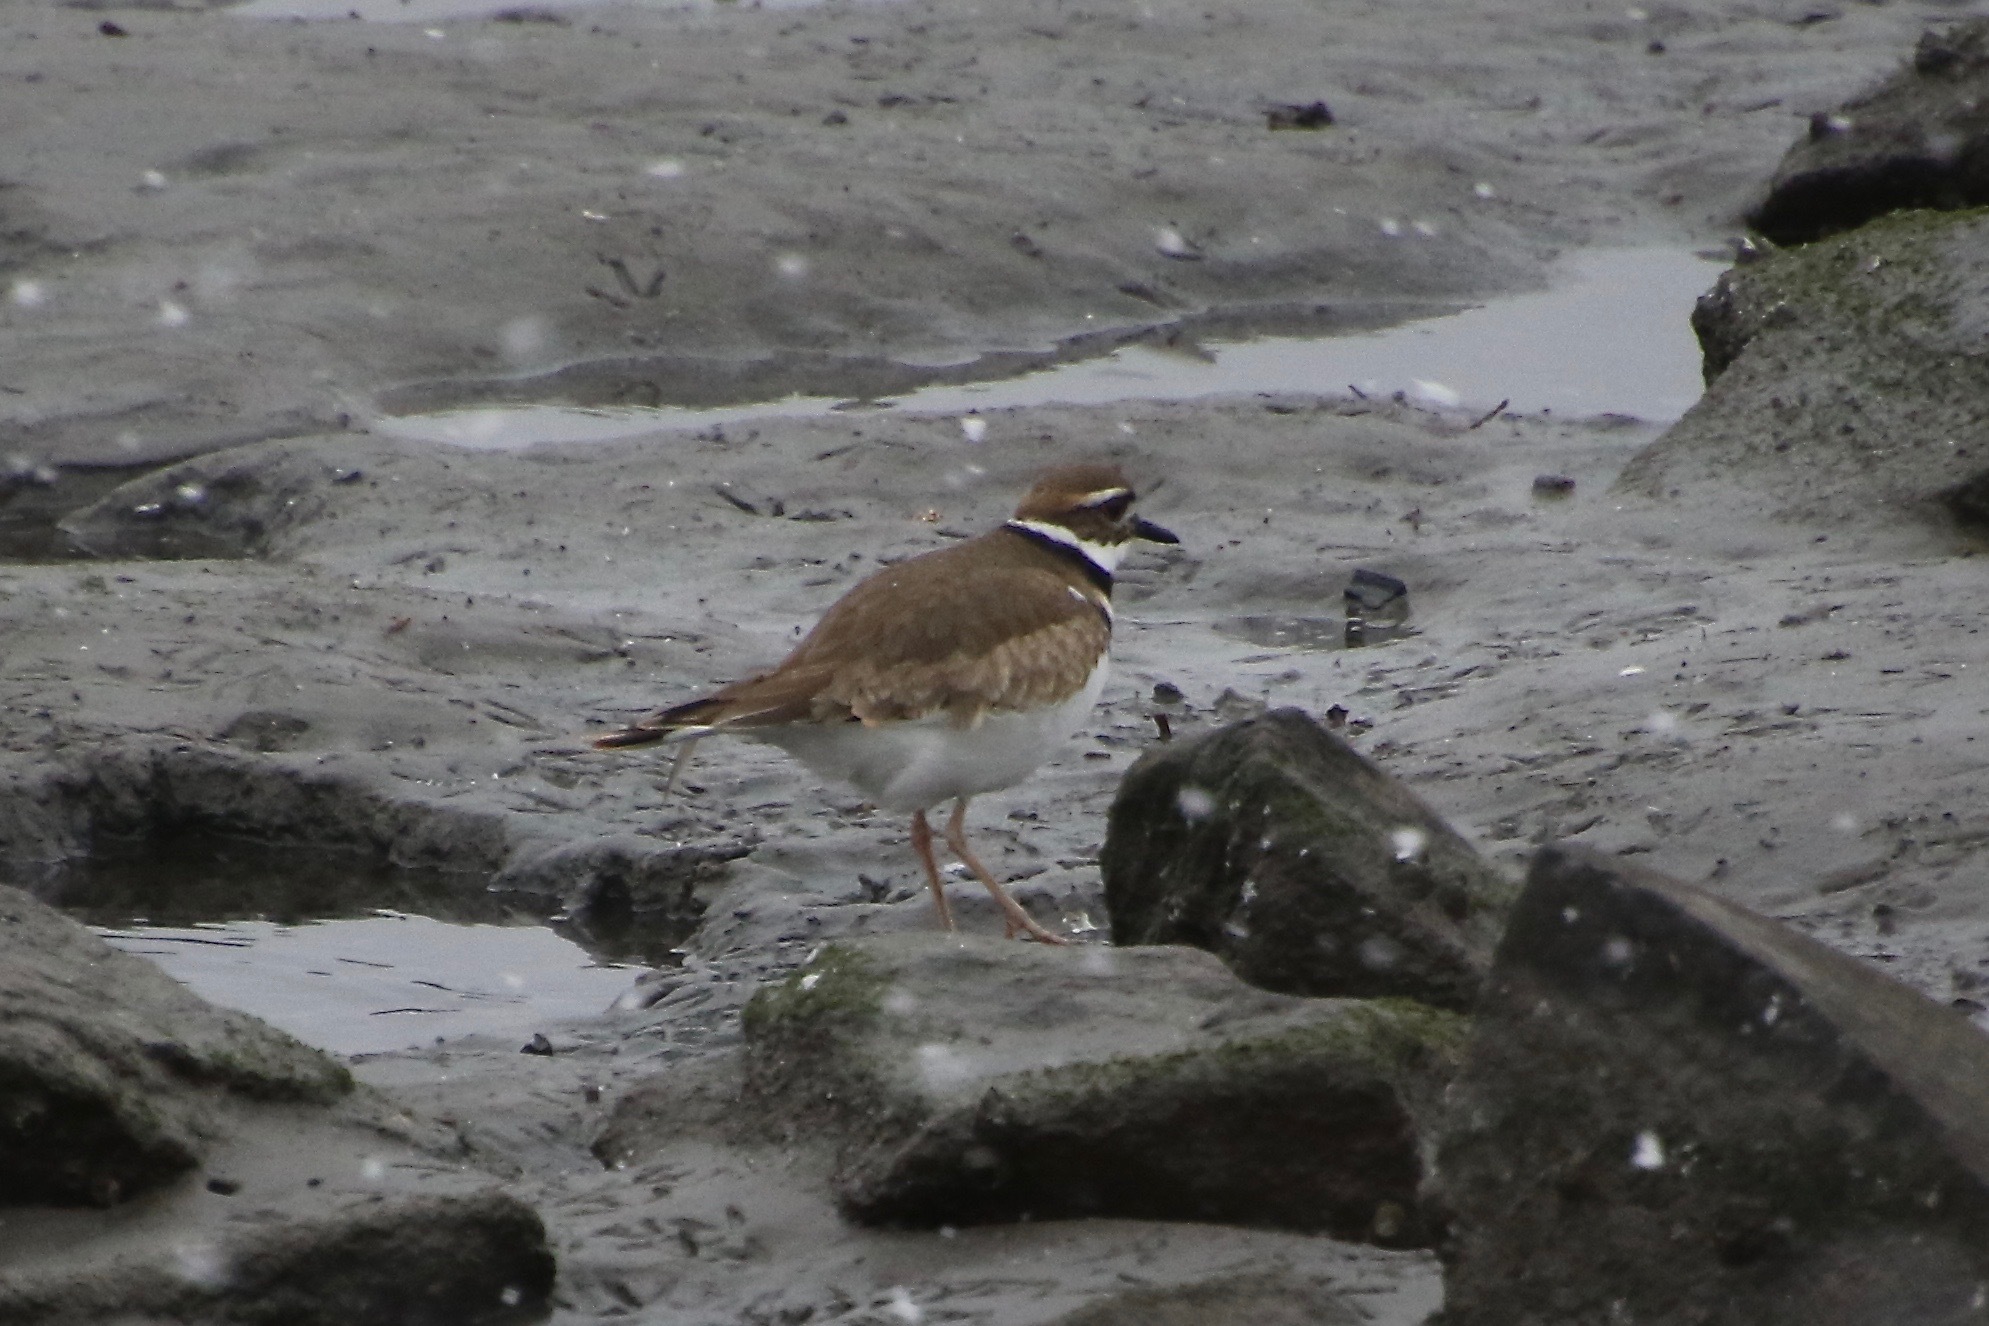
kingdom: Animalia
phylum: Chordata
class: Aves
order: Charadriiformes
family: Charadriidae
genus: Charadrius
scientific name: Charadrius vociferus
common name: Killdeer
